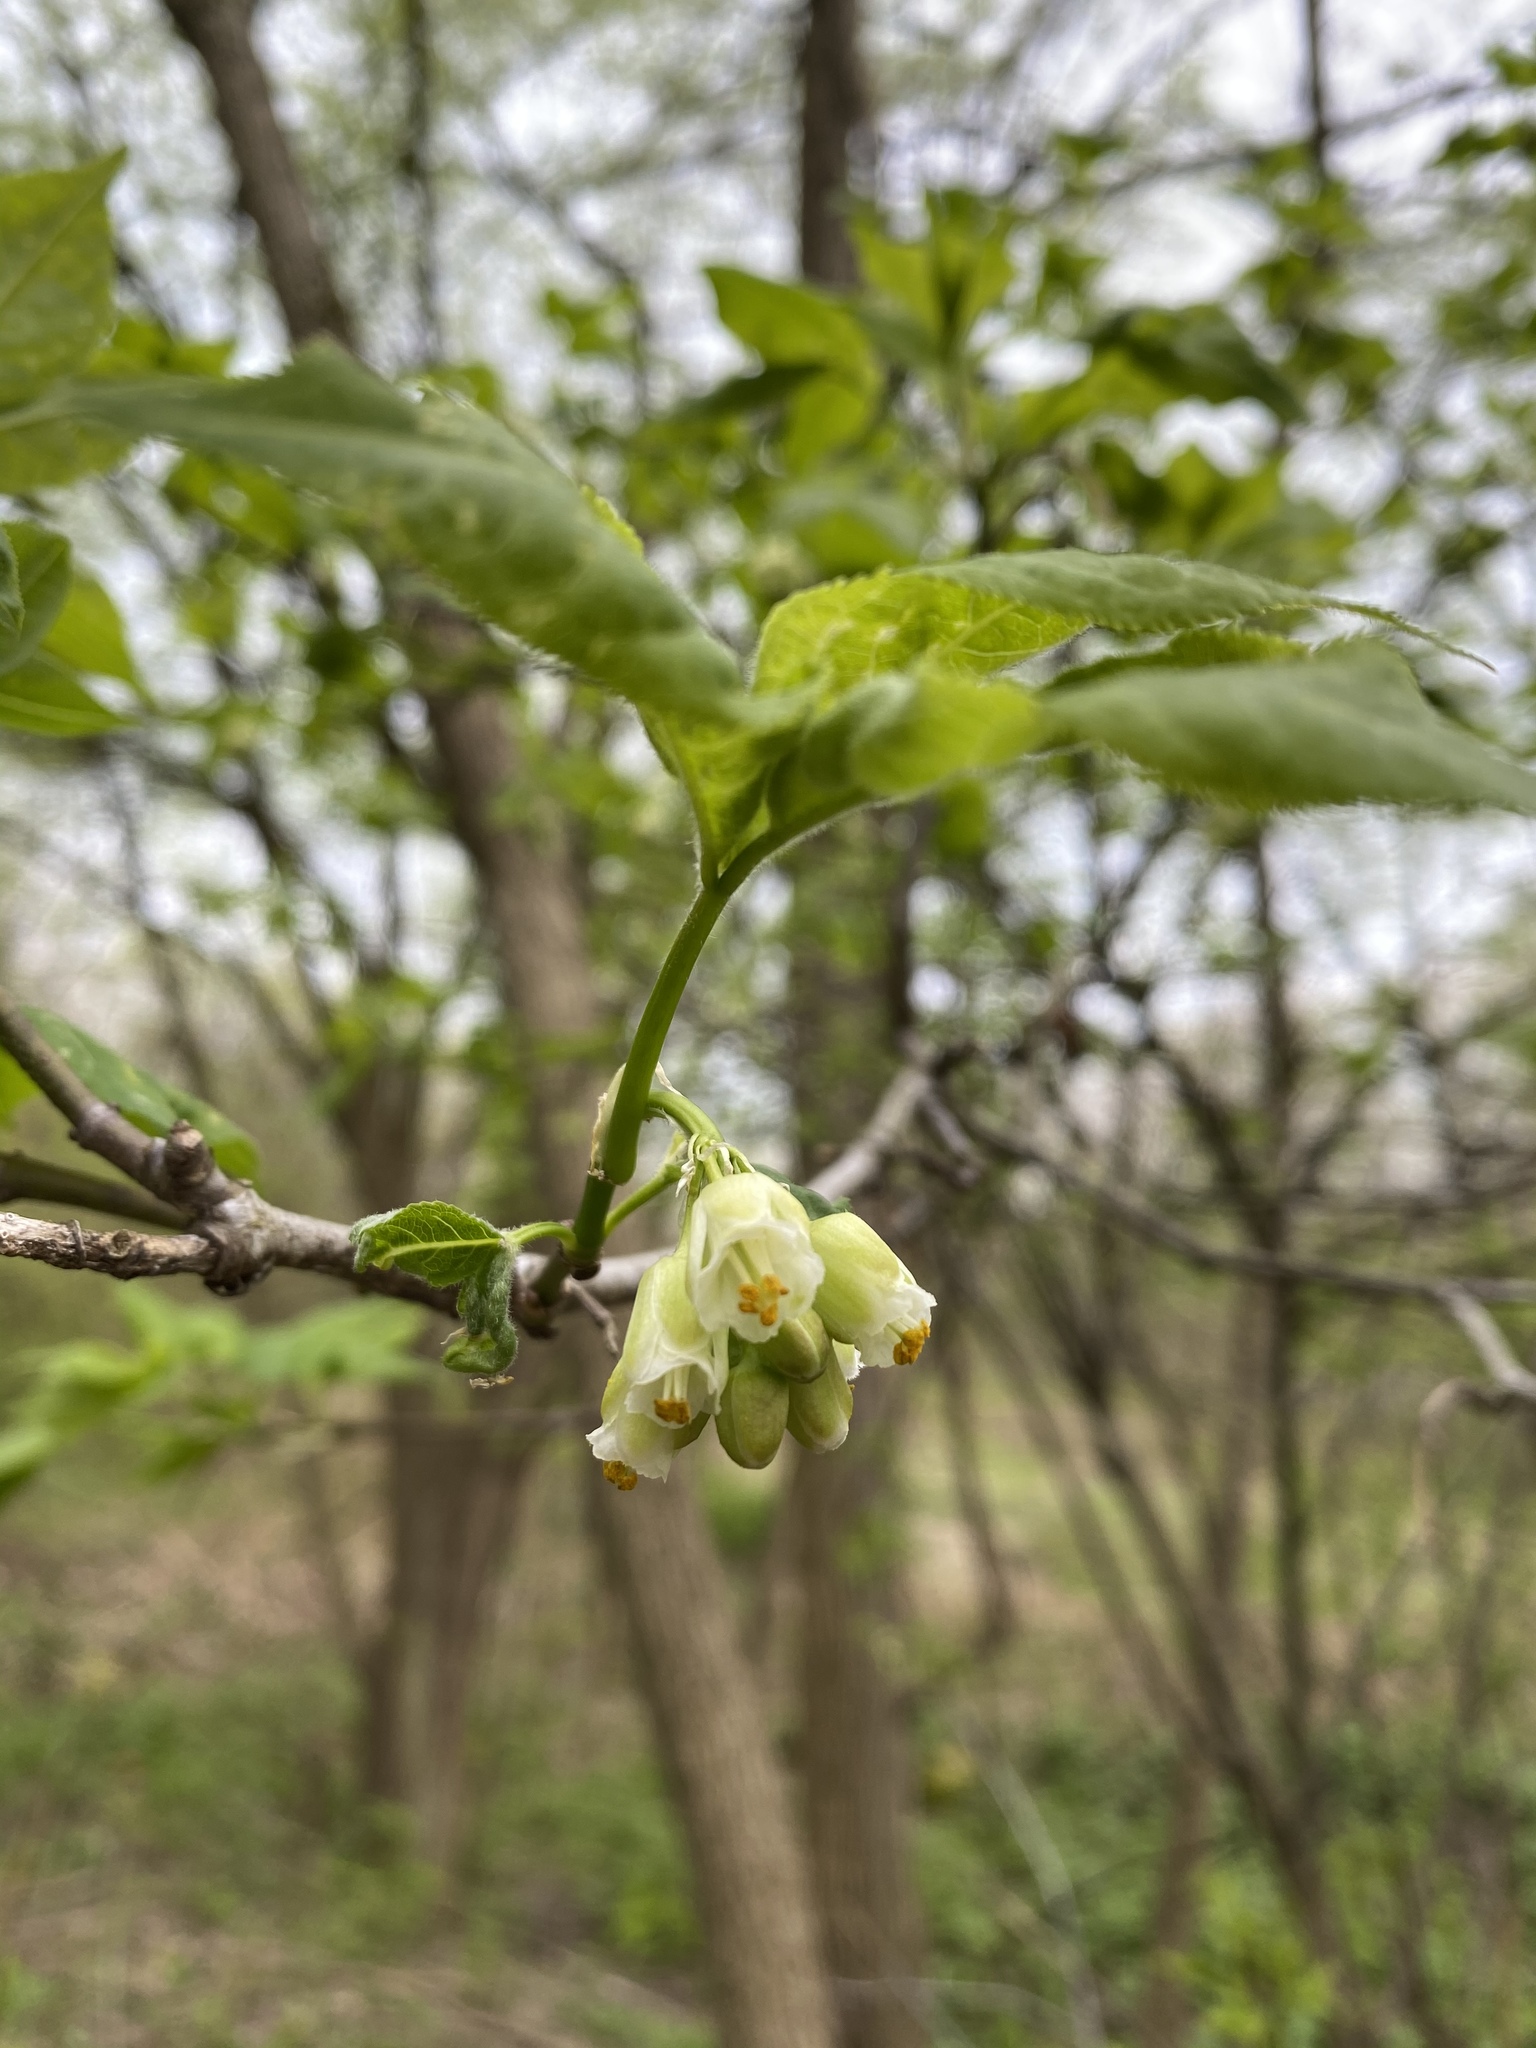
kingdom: Plantae
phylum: Tracheophyta
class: Magnoliopsida
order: Crossosomatales
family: Staphyleaceae
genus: Staphylea
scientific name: Staphylea trifolia
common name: American bladdernut
